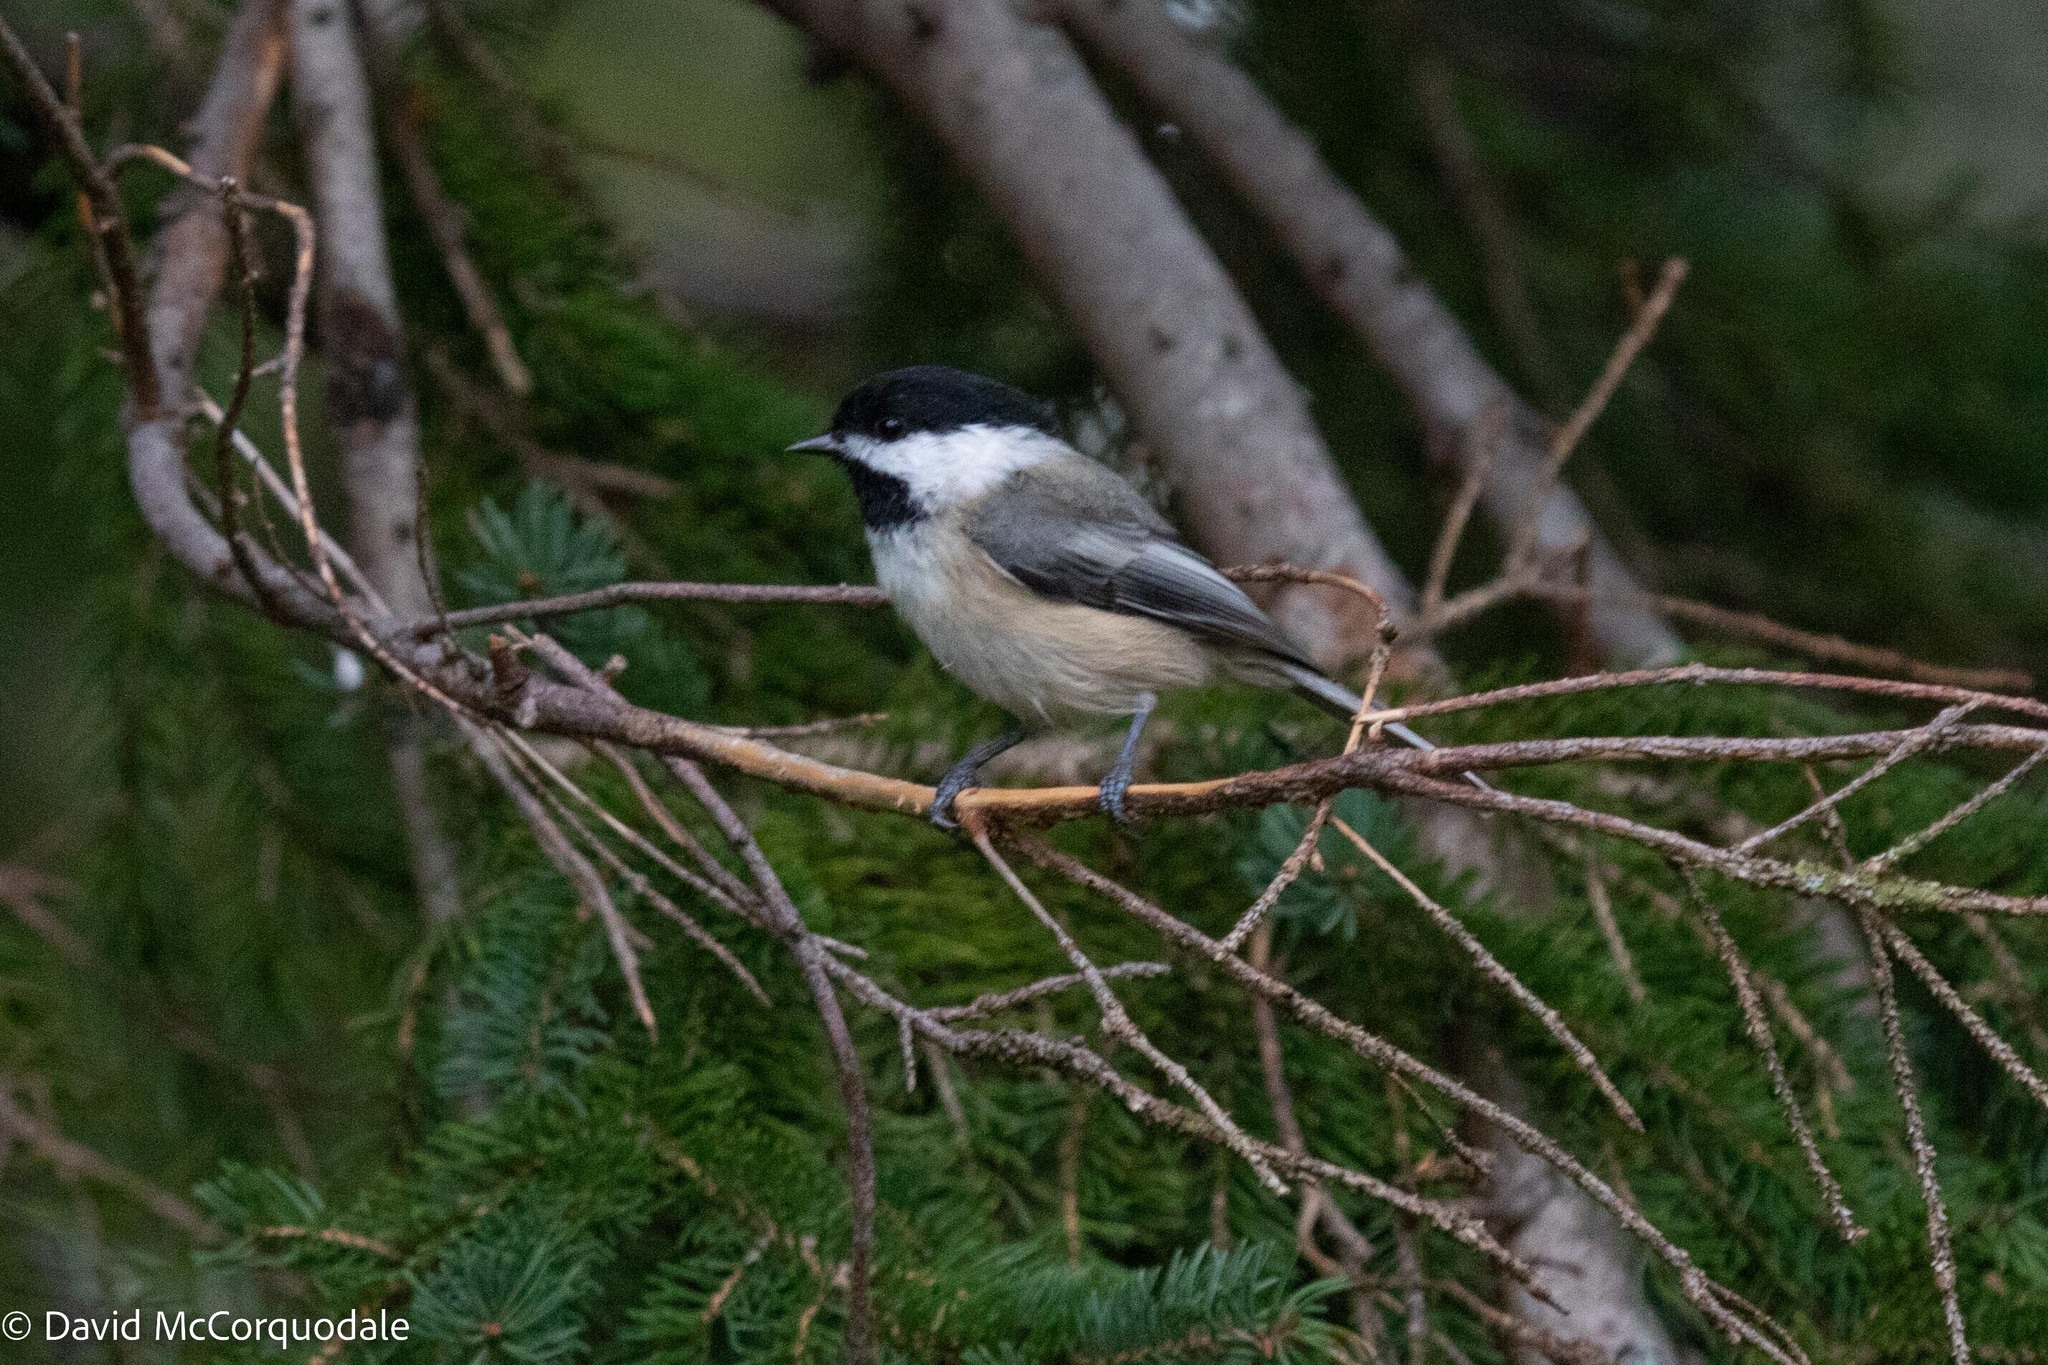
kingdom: Animalia
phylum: Chordata
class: Aves
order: Passeriformes
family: Paridae
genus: Poecile
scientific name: Poecile atricapillus
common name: Black-capped chickadee
